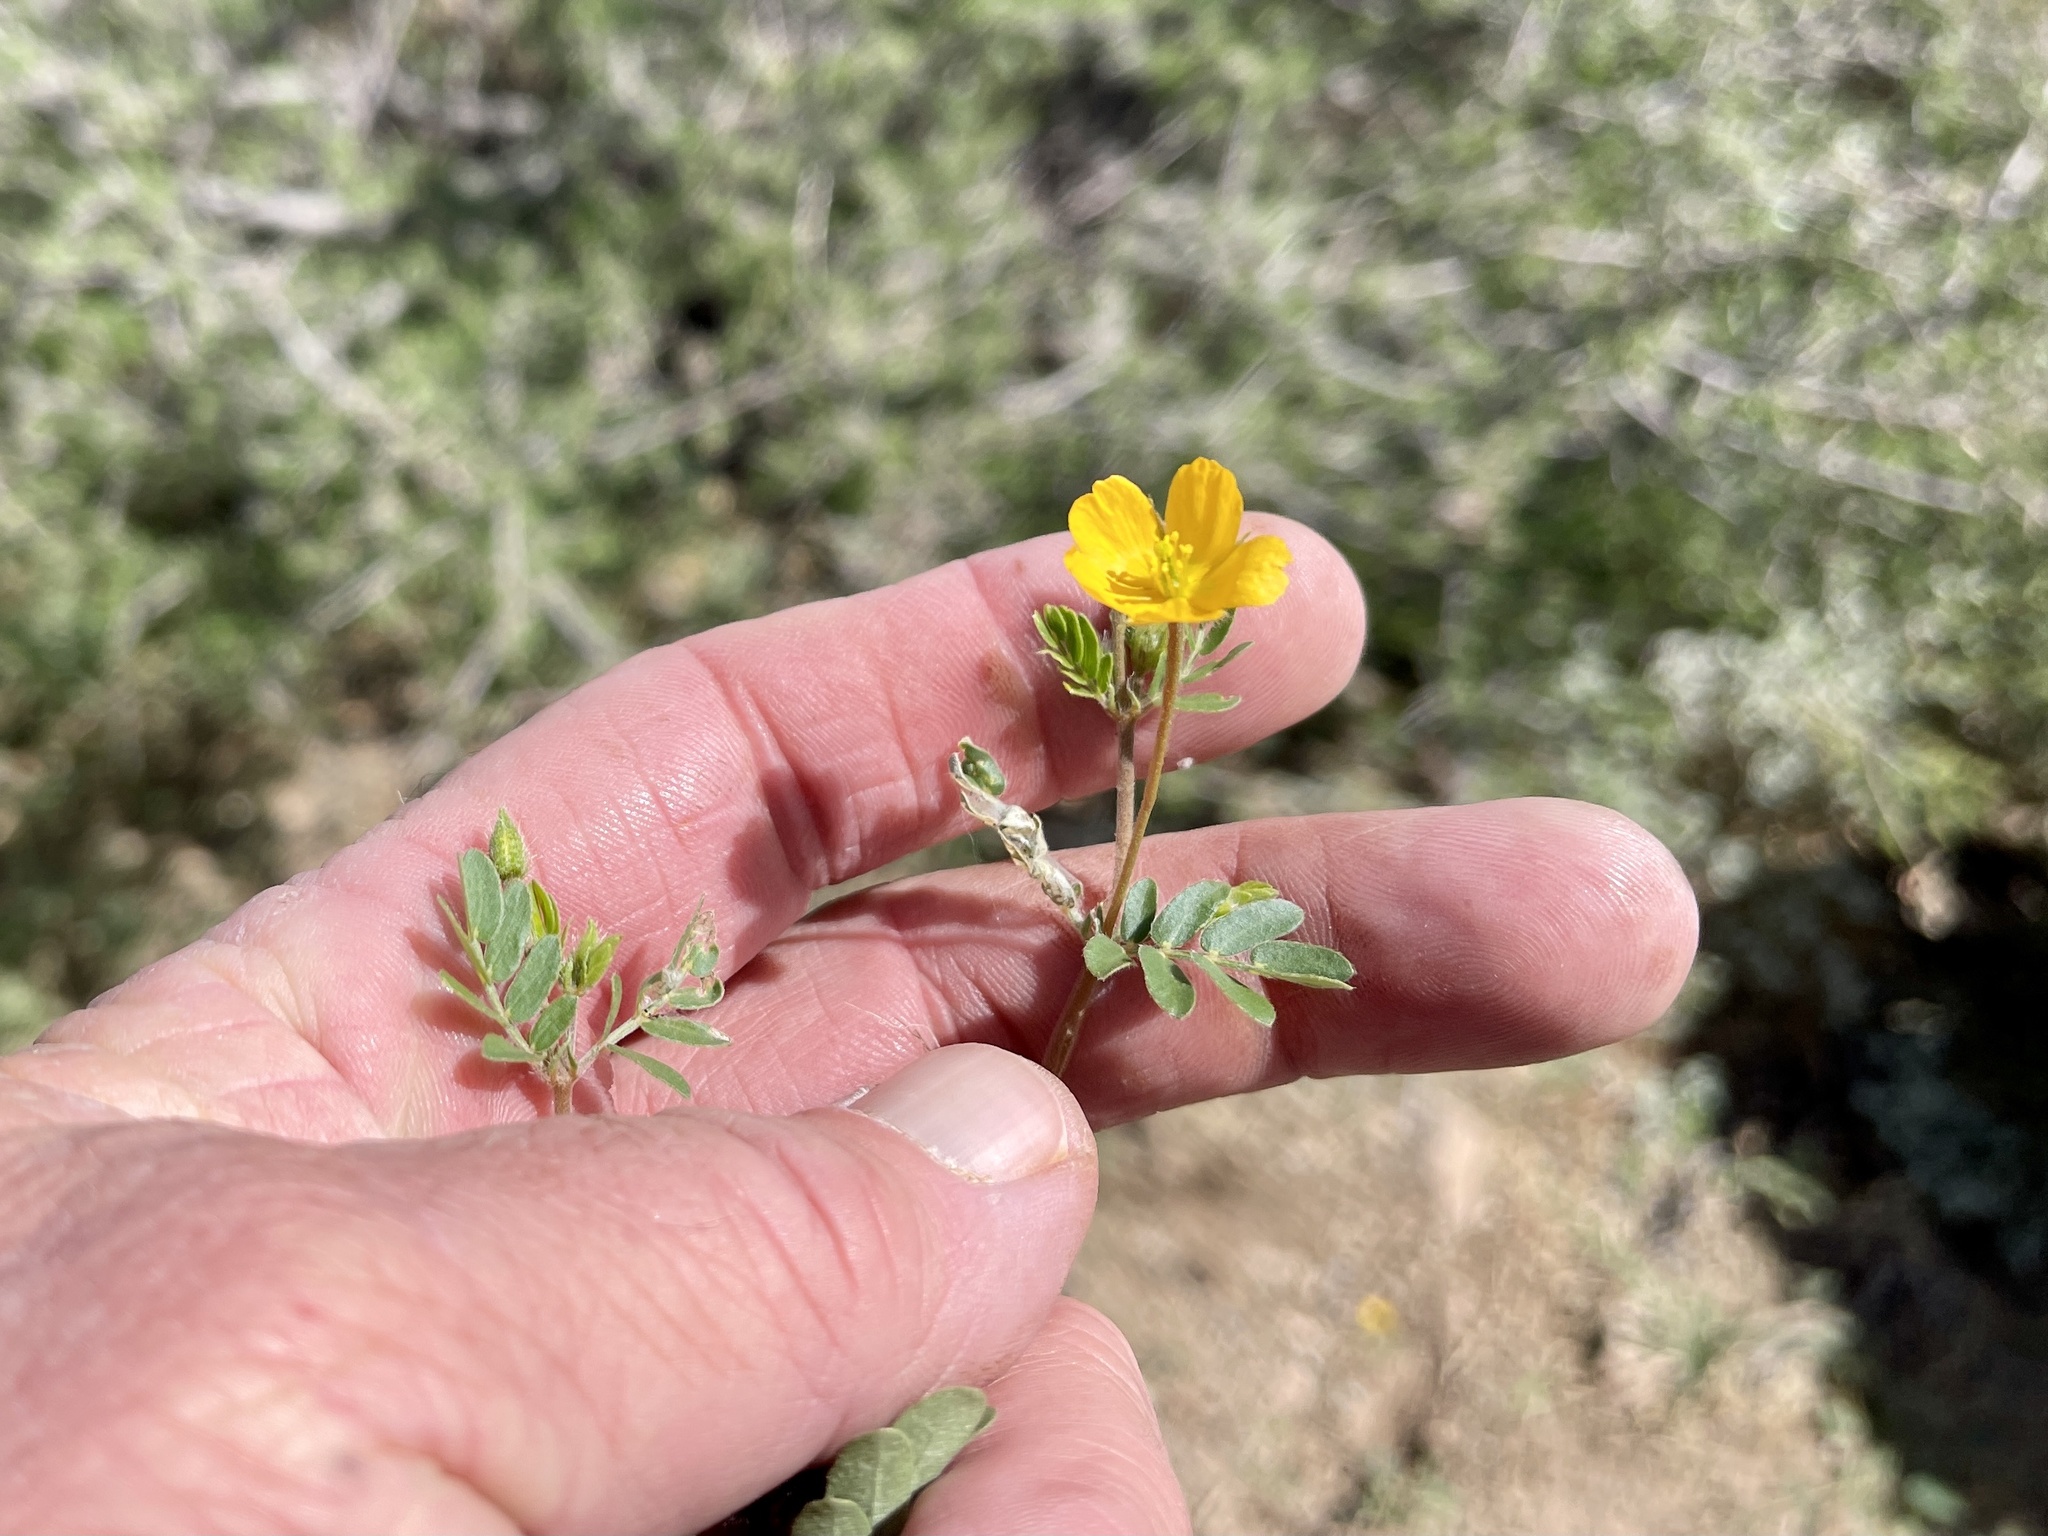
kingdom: Plantae
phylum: Tracheophyta
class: Magnoliopsida
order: Zygophyllales
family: Zygophyllaceae
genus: Kallstroemia
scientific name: Kallstroemia parviflora
